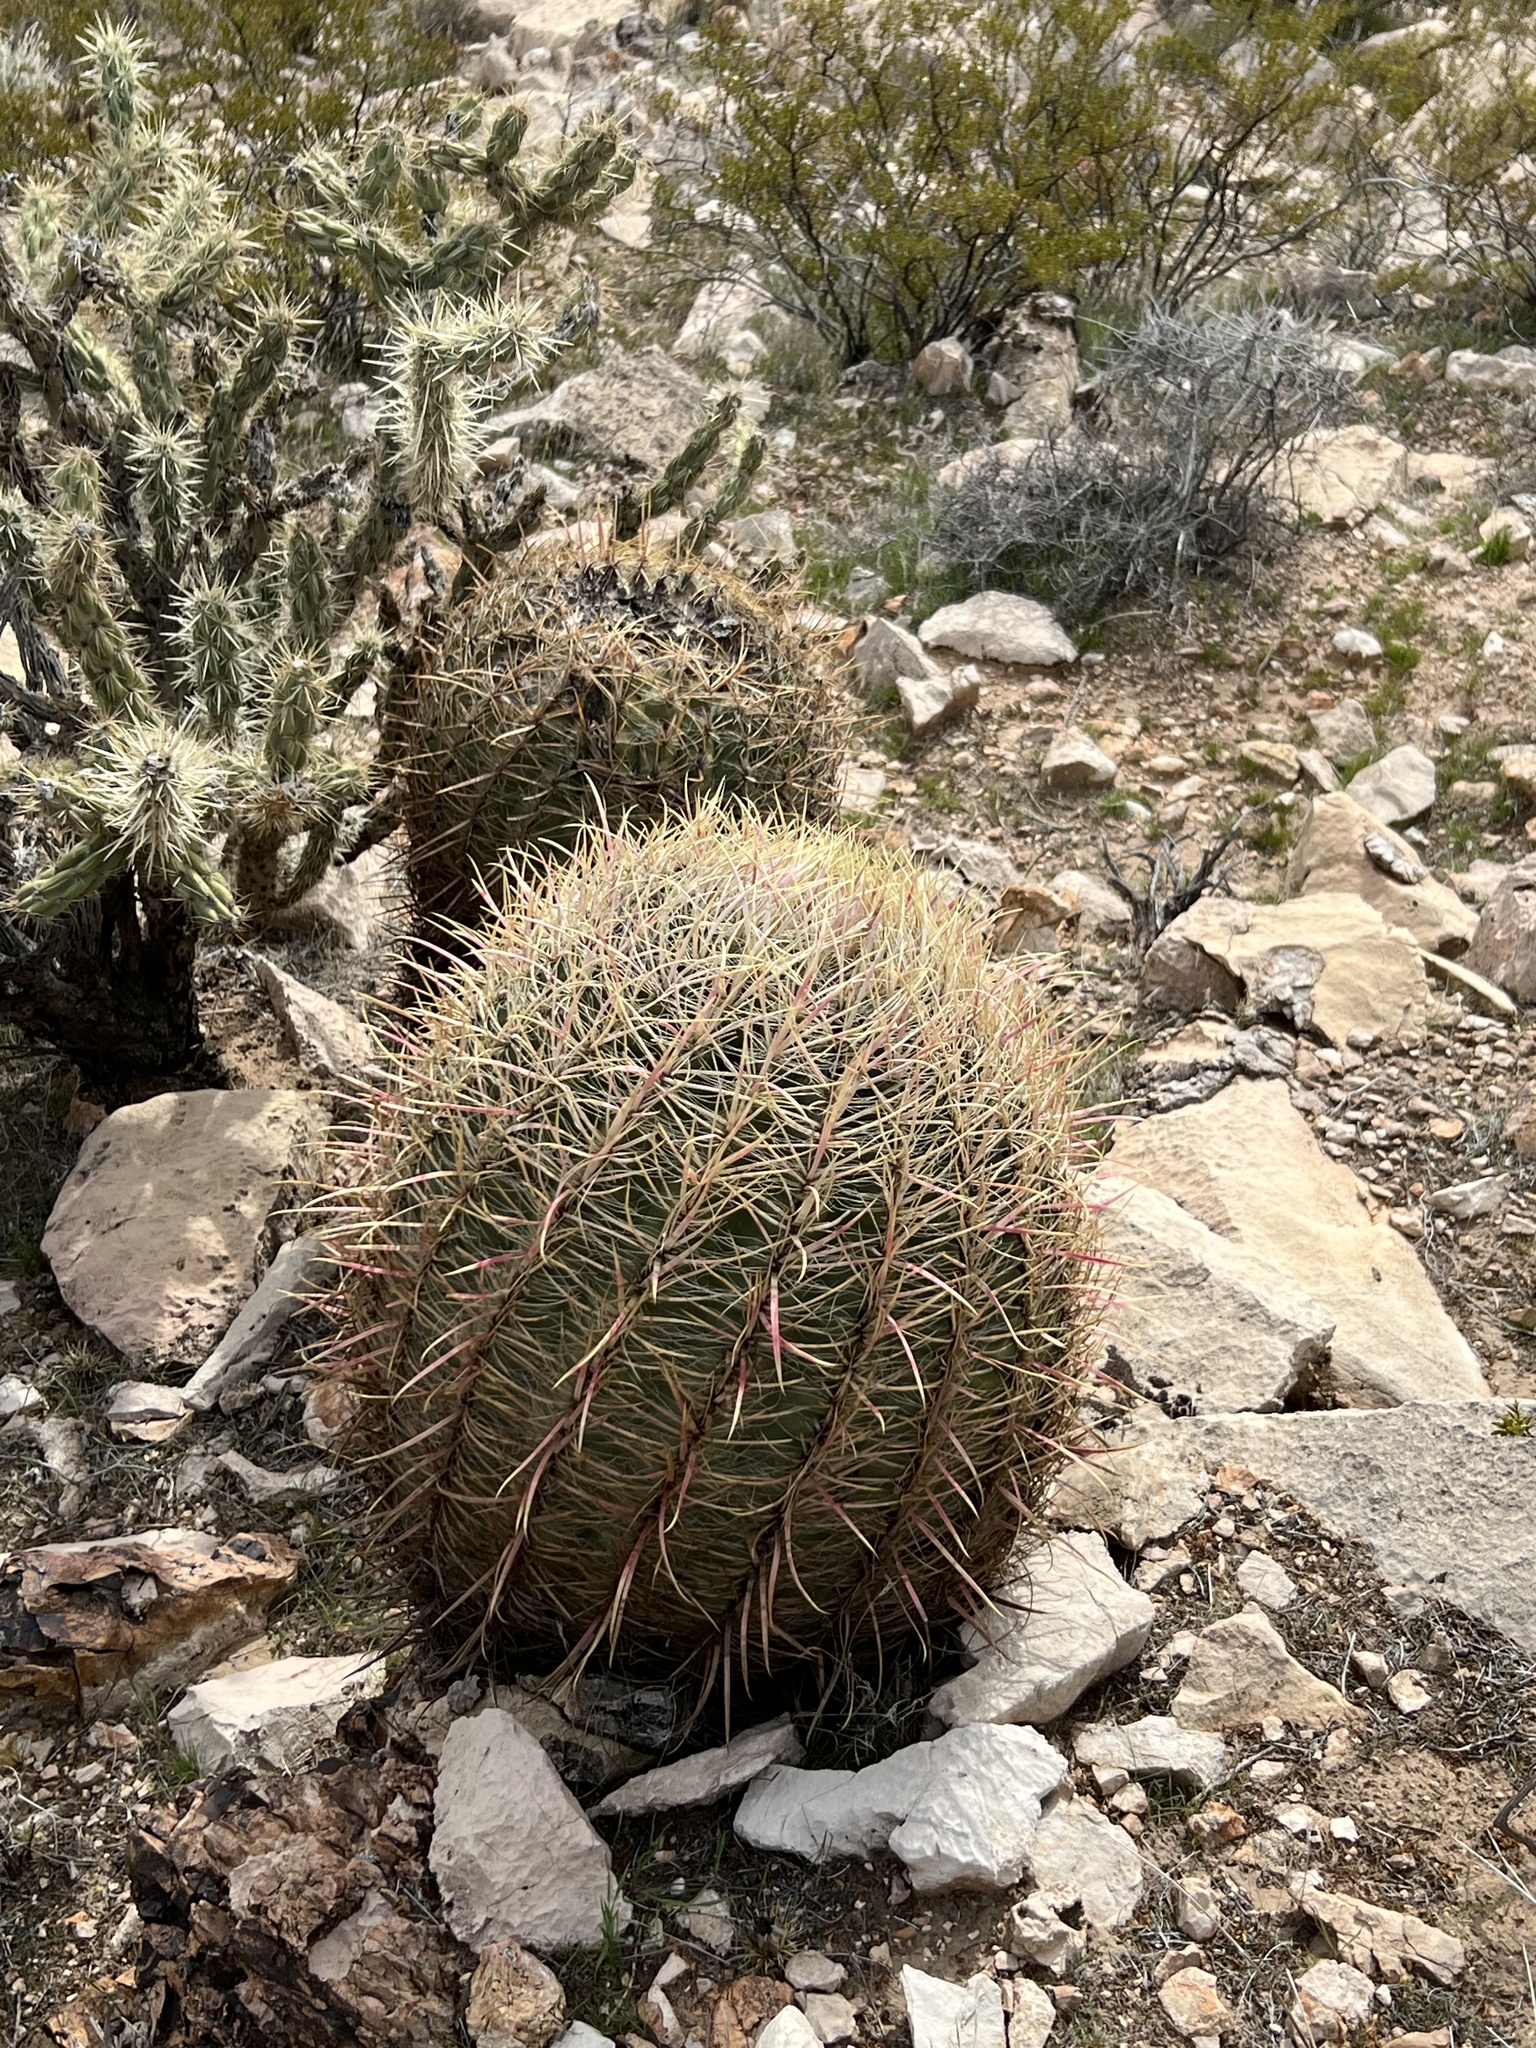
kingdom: Plantae
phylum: Tracheophyta
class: Magnoliopsida
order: Caryophyllales
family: Cactaceae
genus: Ferocactus
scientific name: Ferocactus cylindraceus
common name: California barrel cactus
